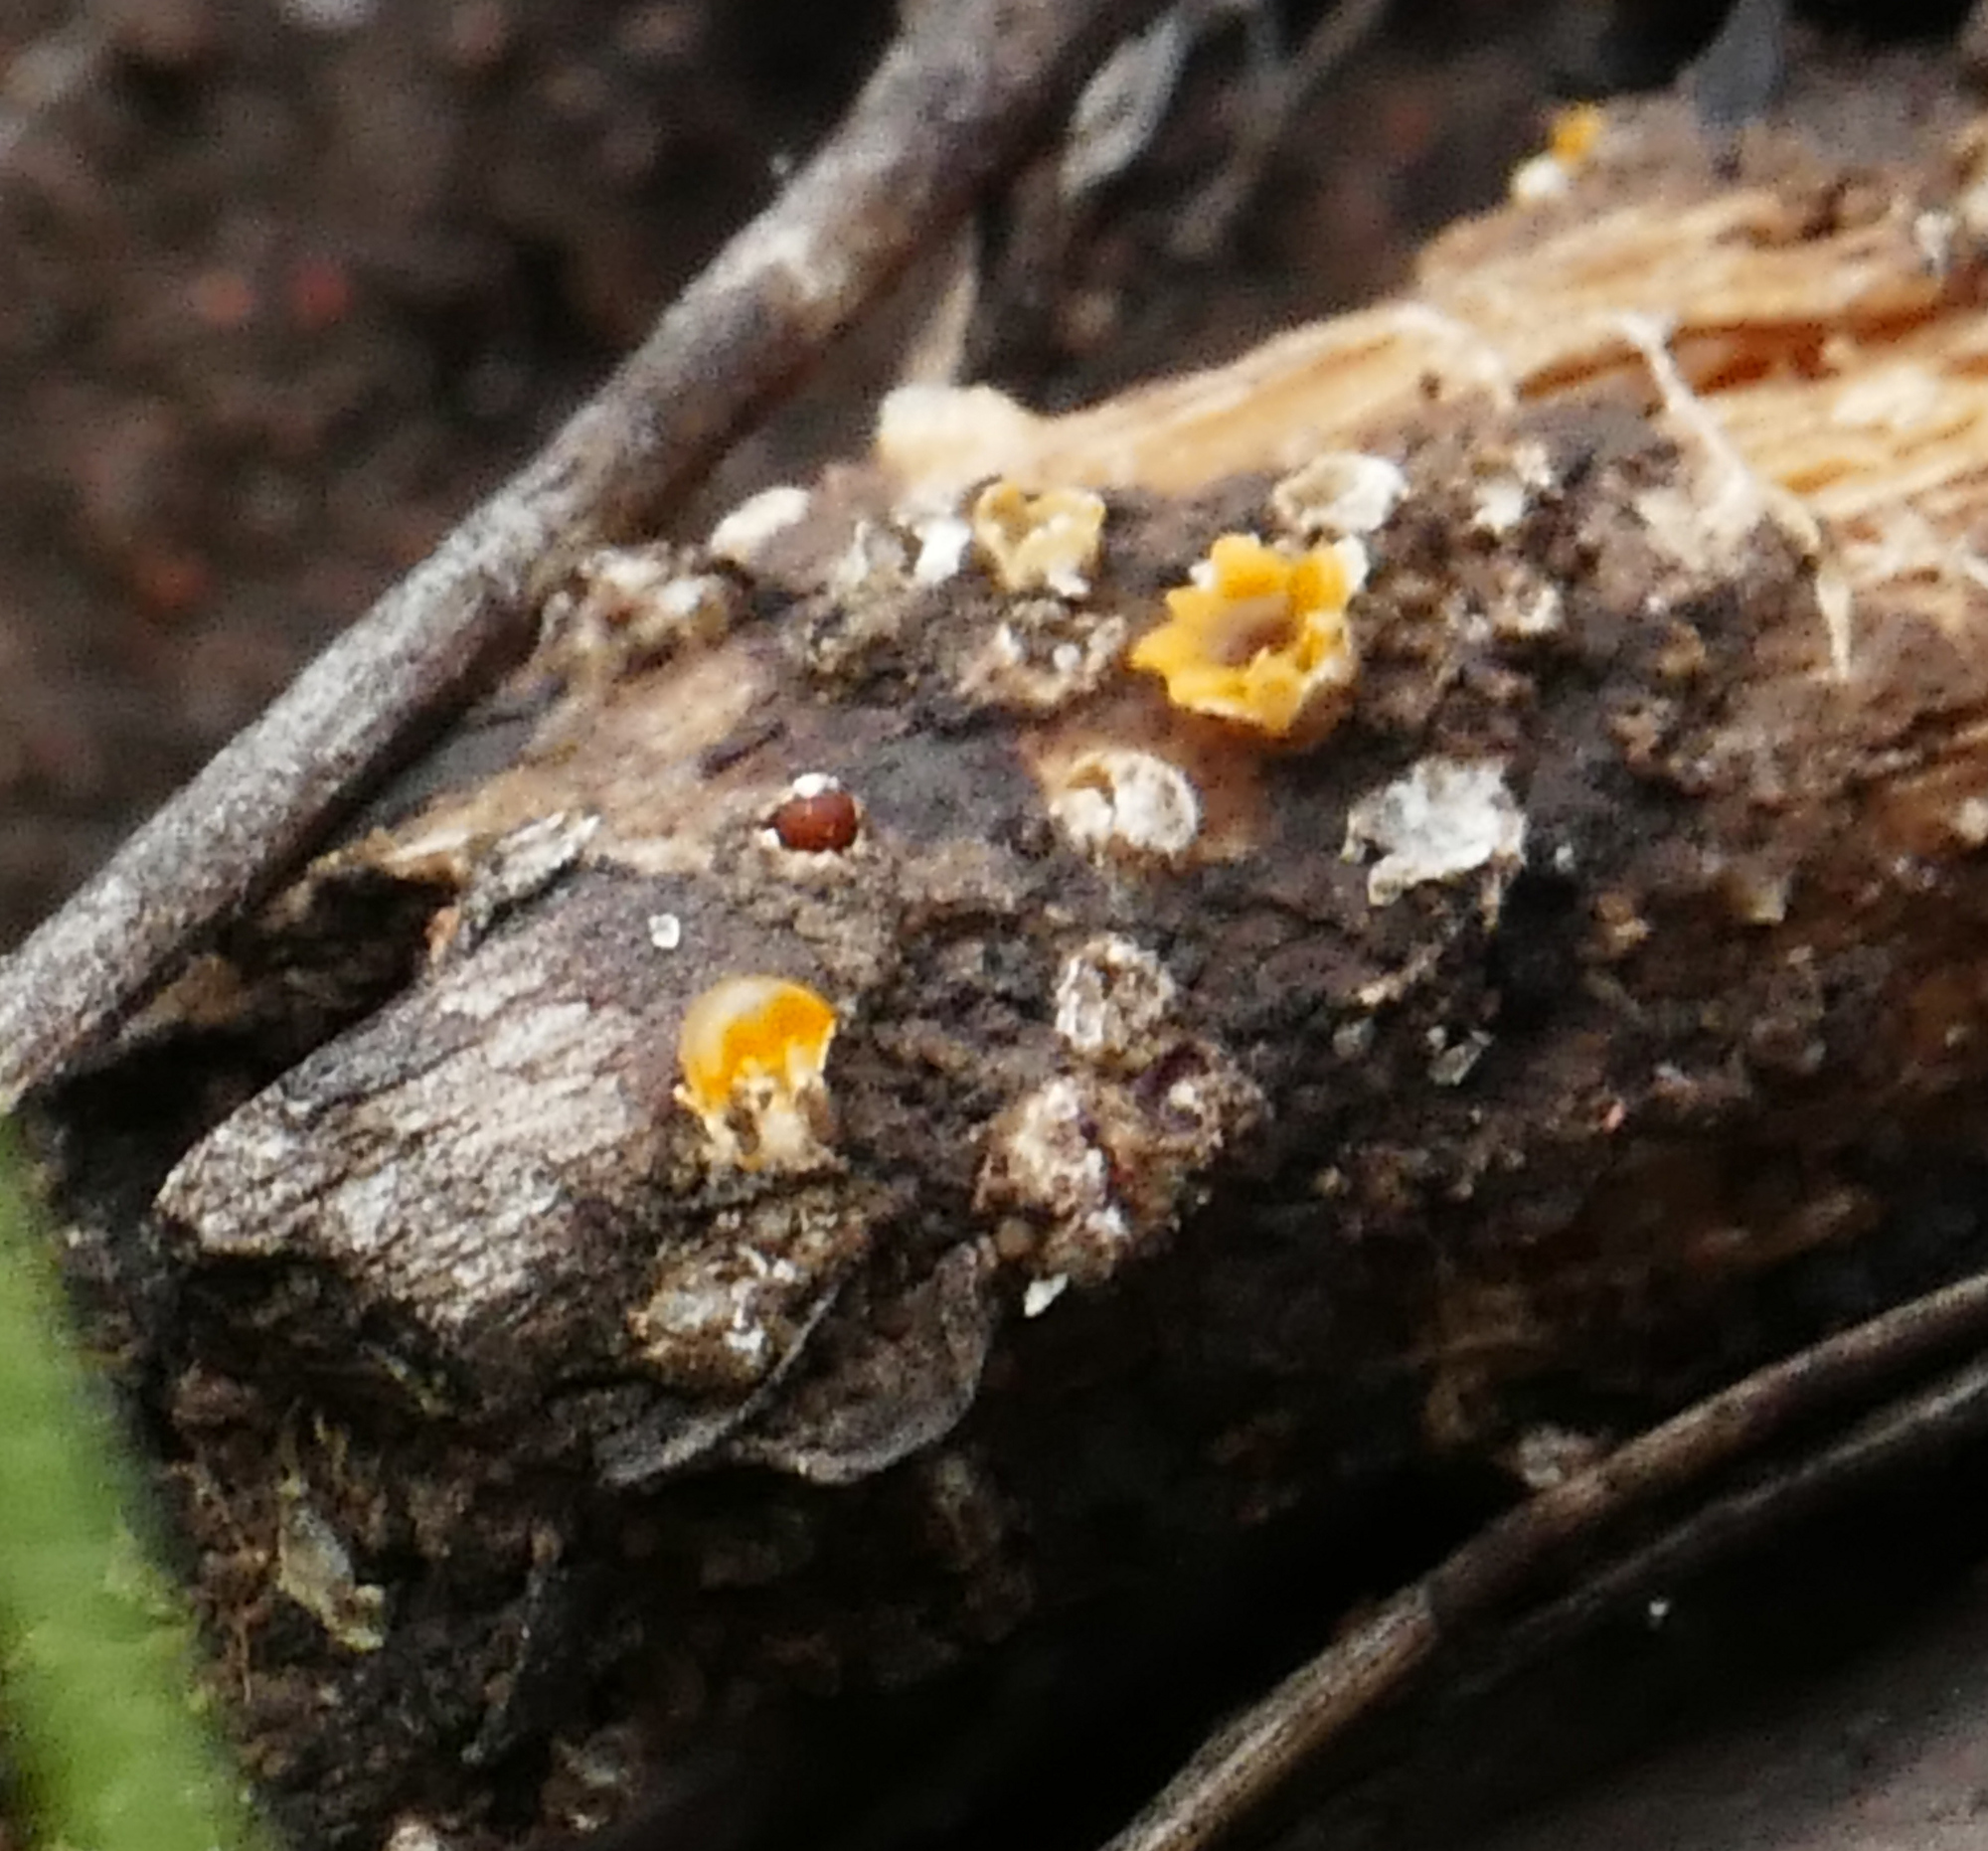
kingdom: Fungi
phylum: Basidiomycota
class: Agaricomycetes
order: Geastrales
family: Geastraceae
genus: Sphaerobolus
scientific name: Sphaerobolus stellatus
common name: Cannon fungus
